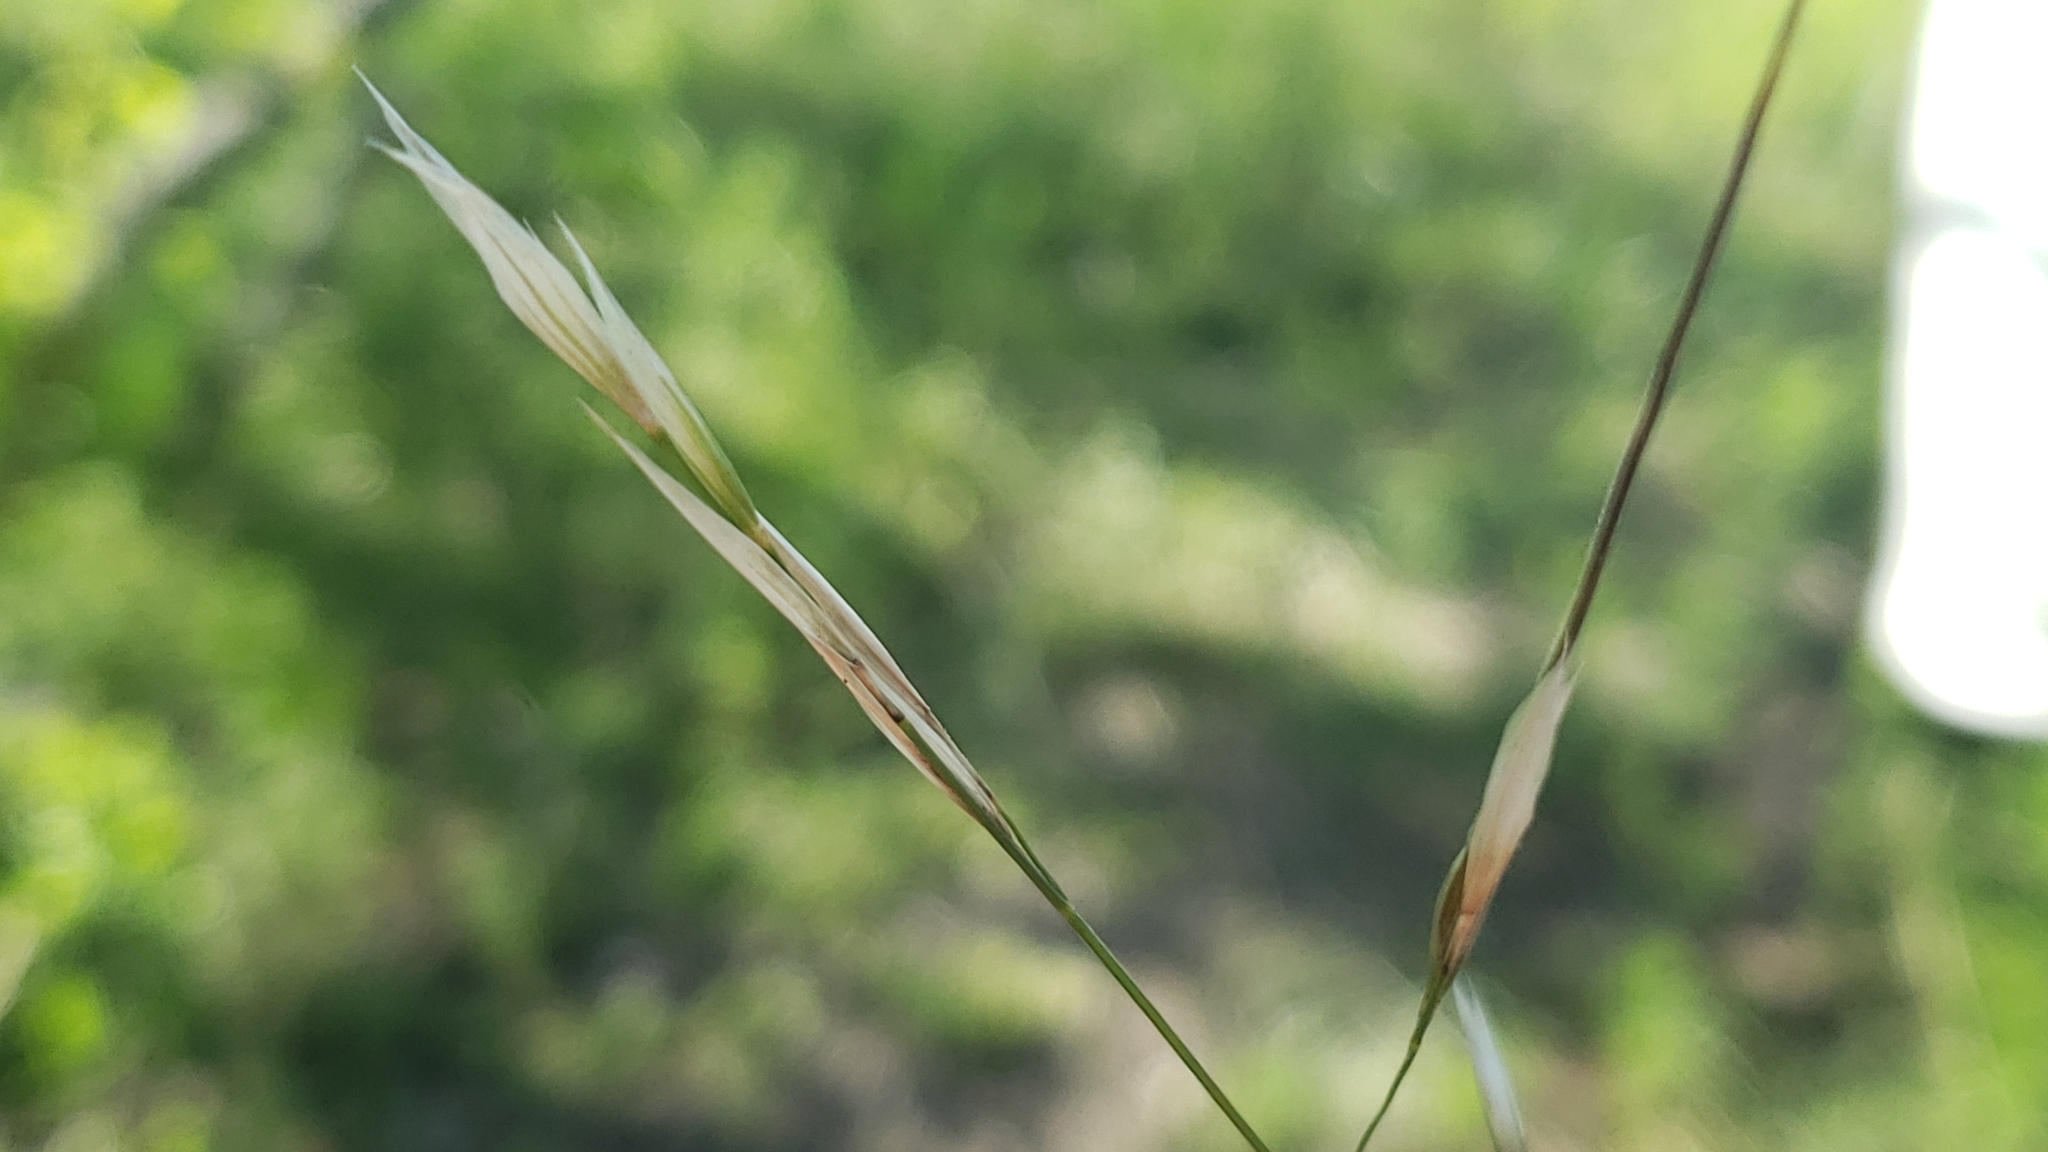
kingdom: Plantae
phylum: Tracheophyta
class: Liliopsida
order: Poales
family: Poaceae
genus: Nassella
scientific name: Nassella leucotricha
